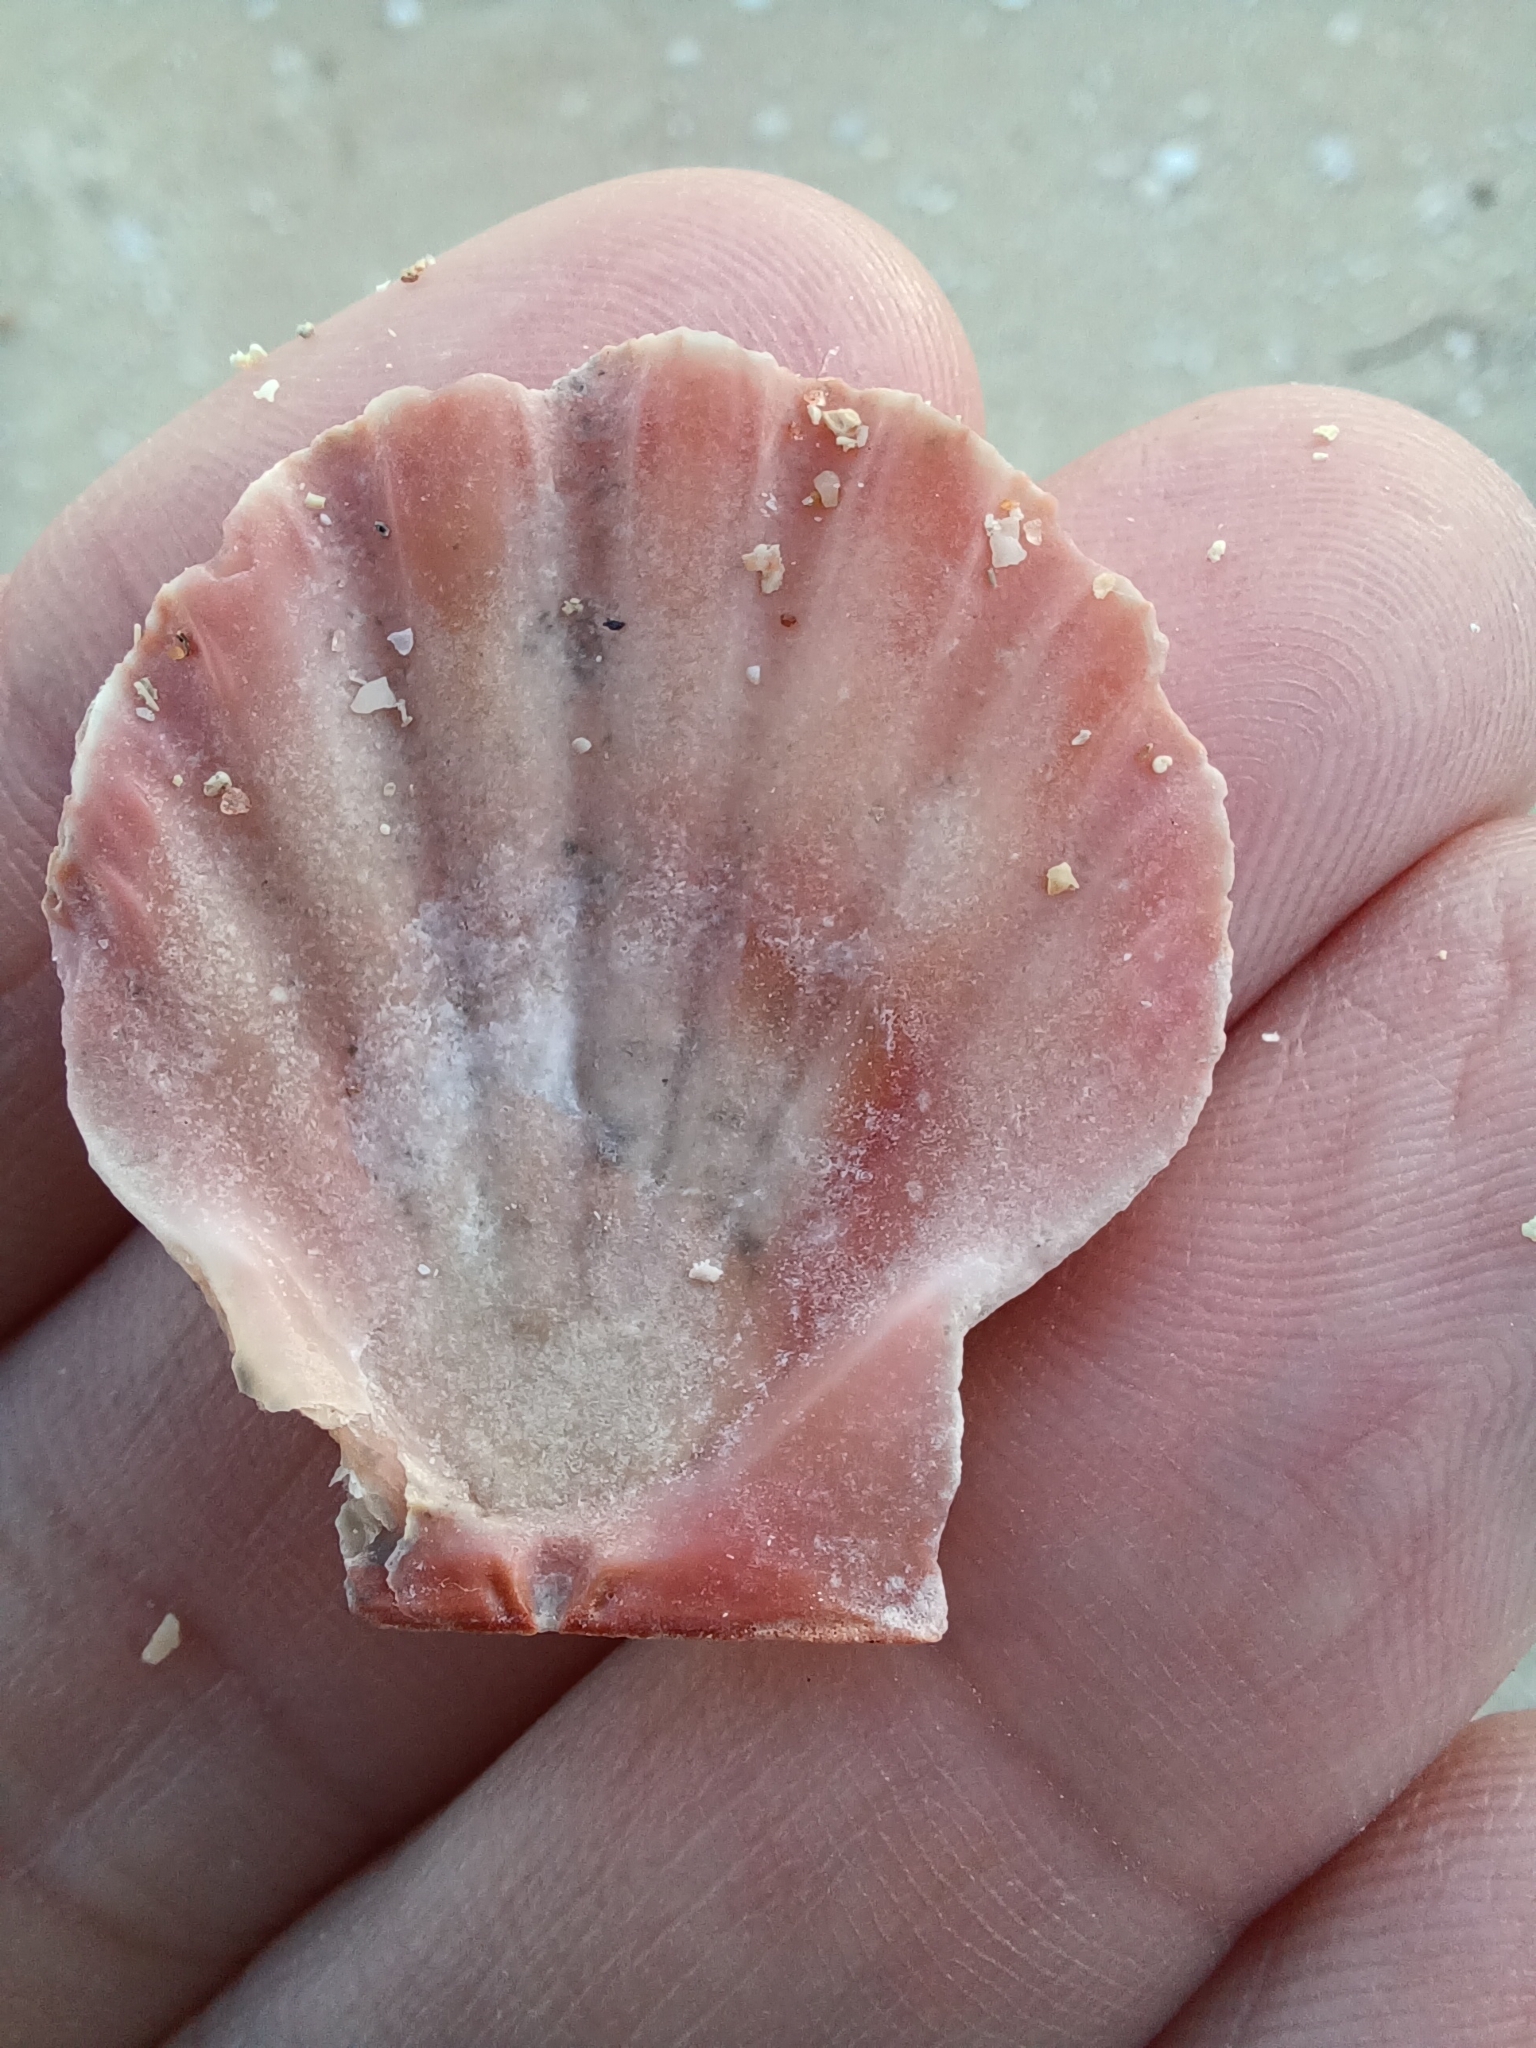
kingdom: Animalia
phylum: Mollusca
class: Bivalvia
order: Pectinida
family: Pectinidae
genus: Equichlamys
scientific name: Equichlamys bifrons
